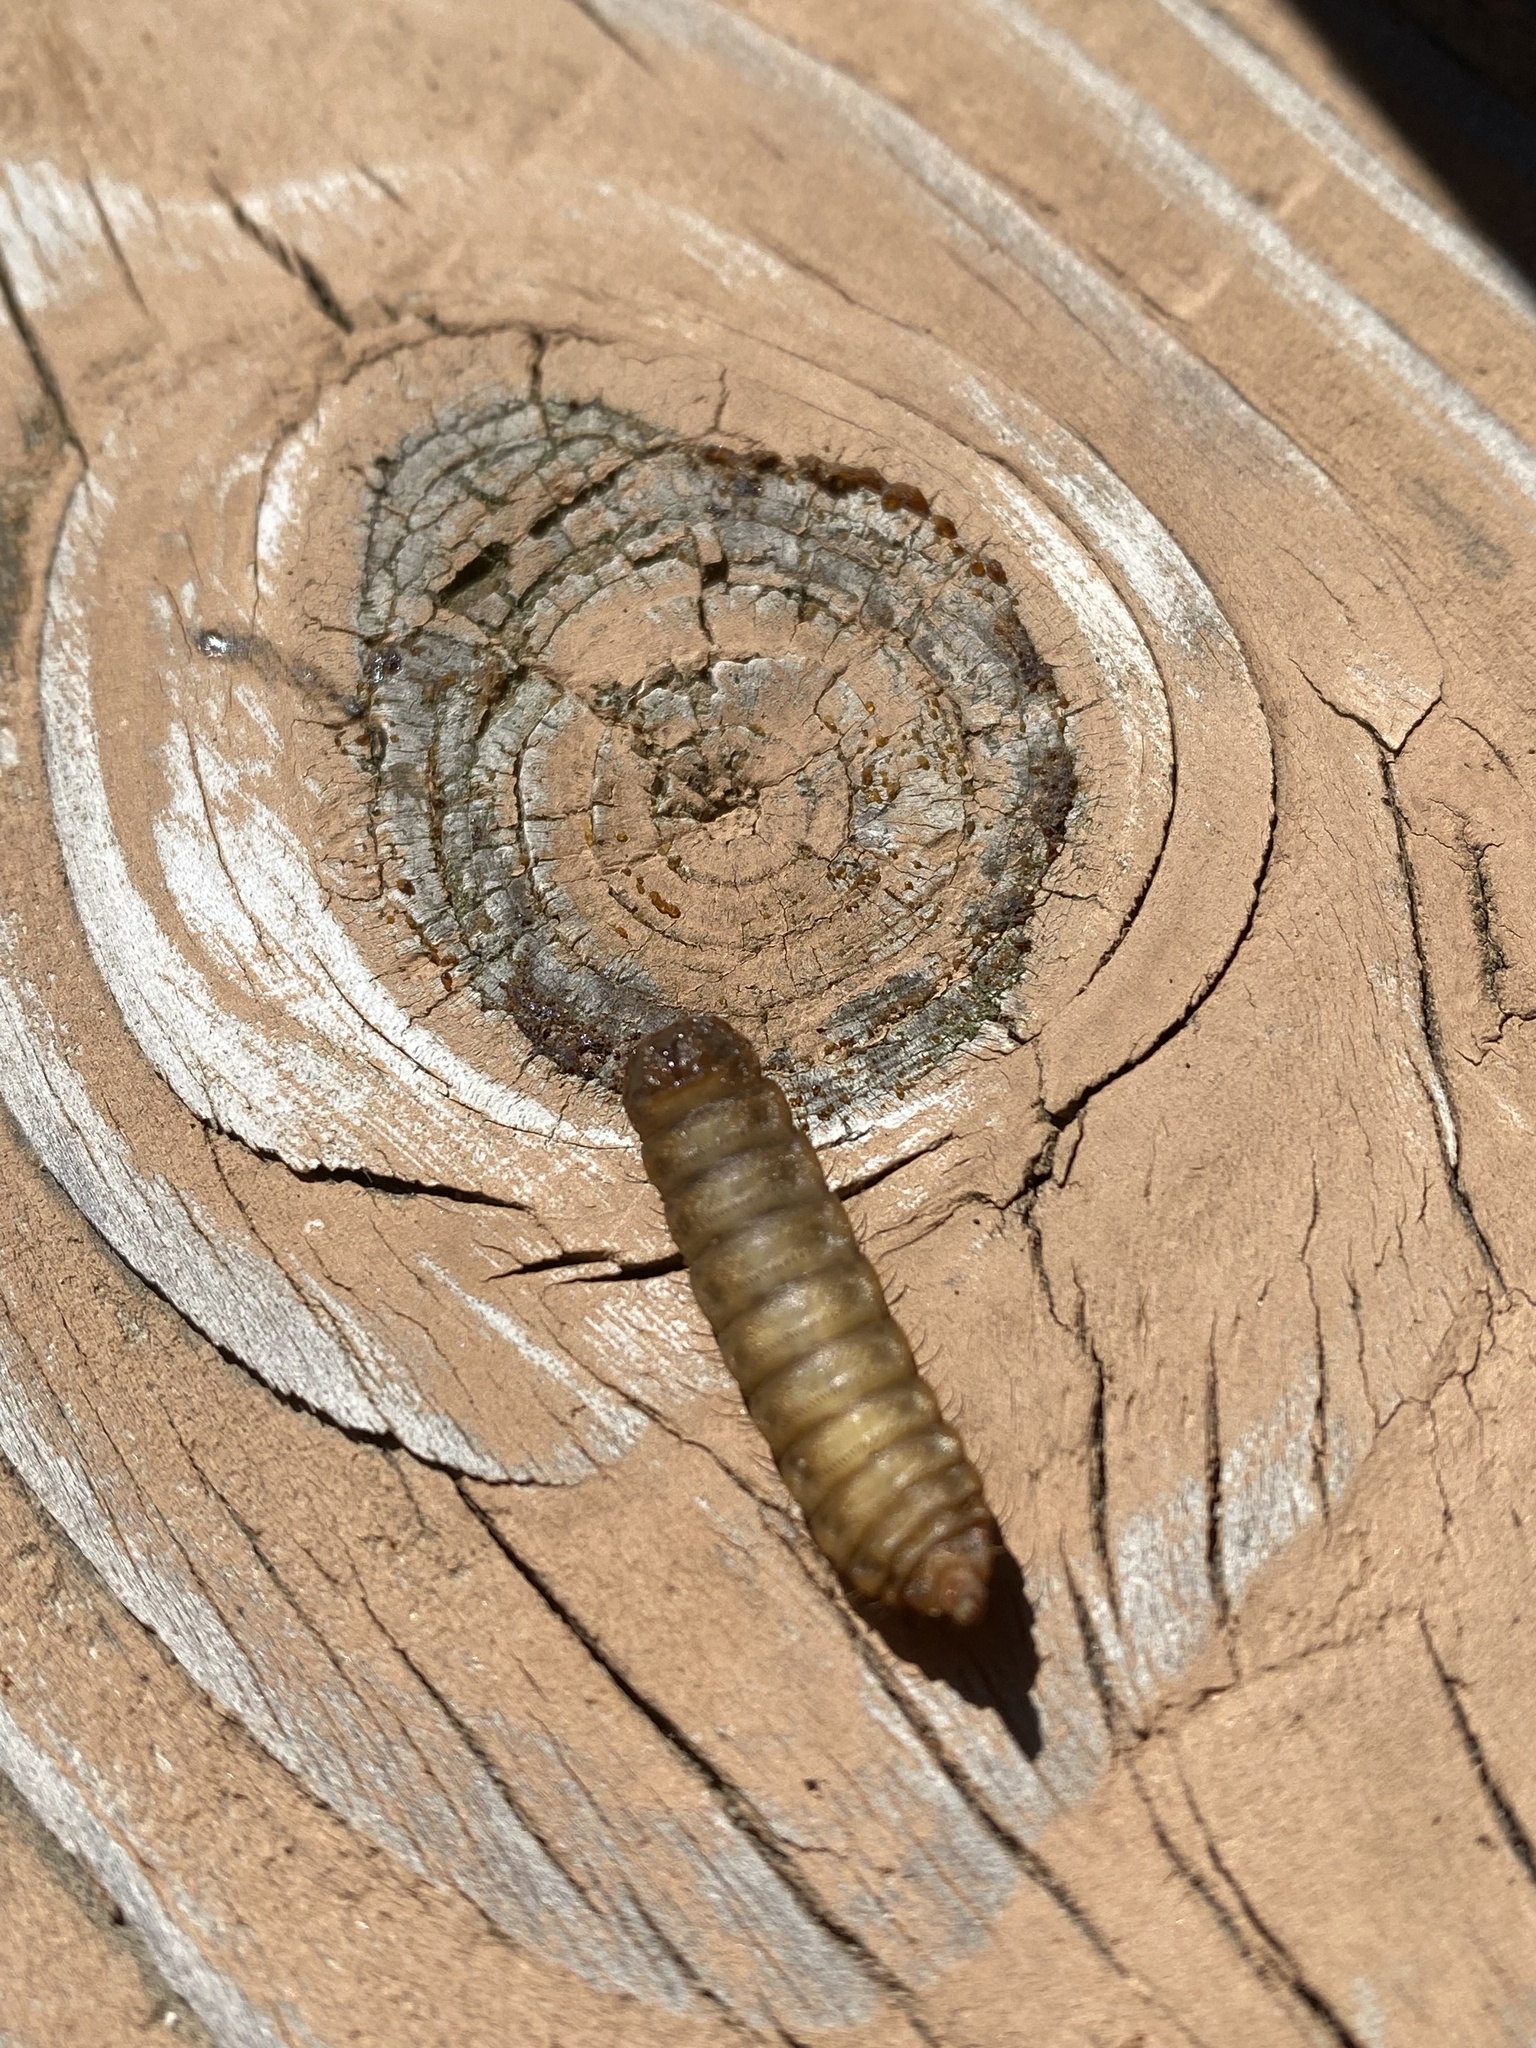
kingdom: Animalia
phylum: Arthropoda
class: Insecta
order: Diptera
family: Stratiomyidae
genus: Hermetia
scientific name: Hermetia illucens
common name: Black soldier fly
